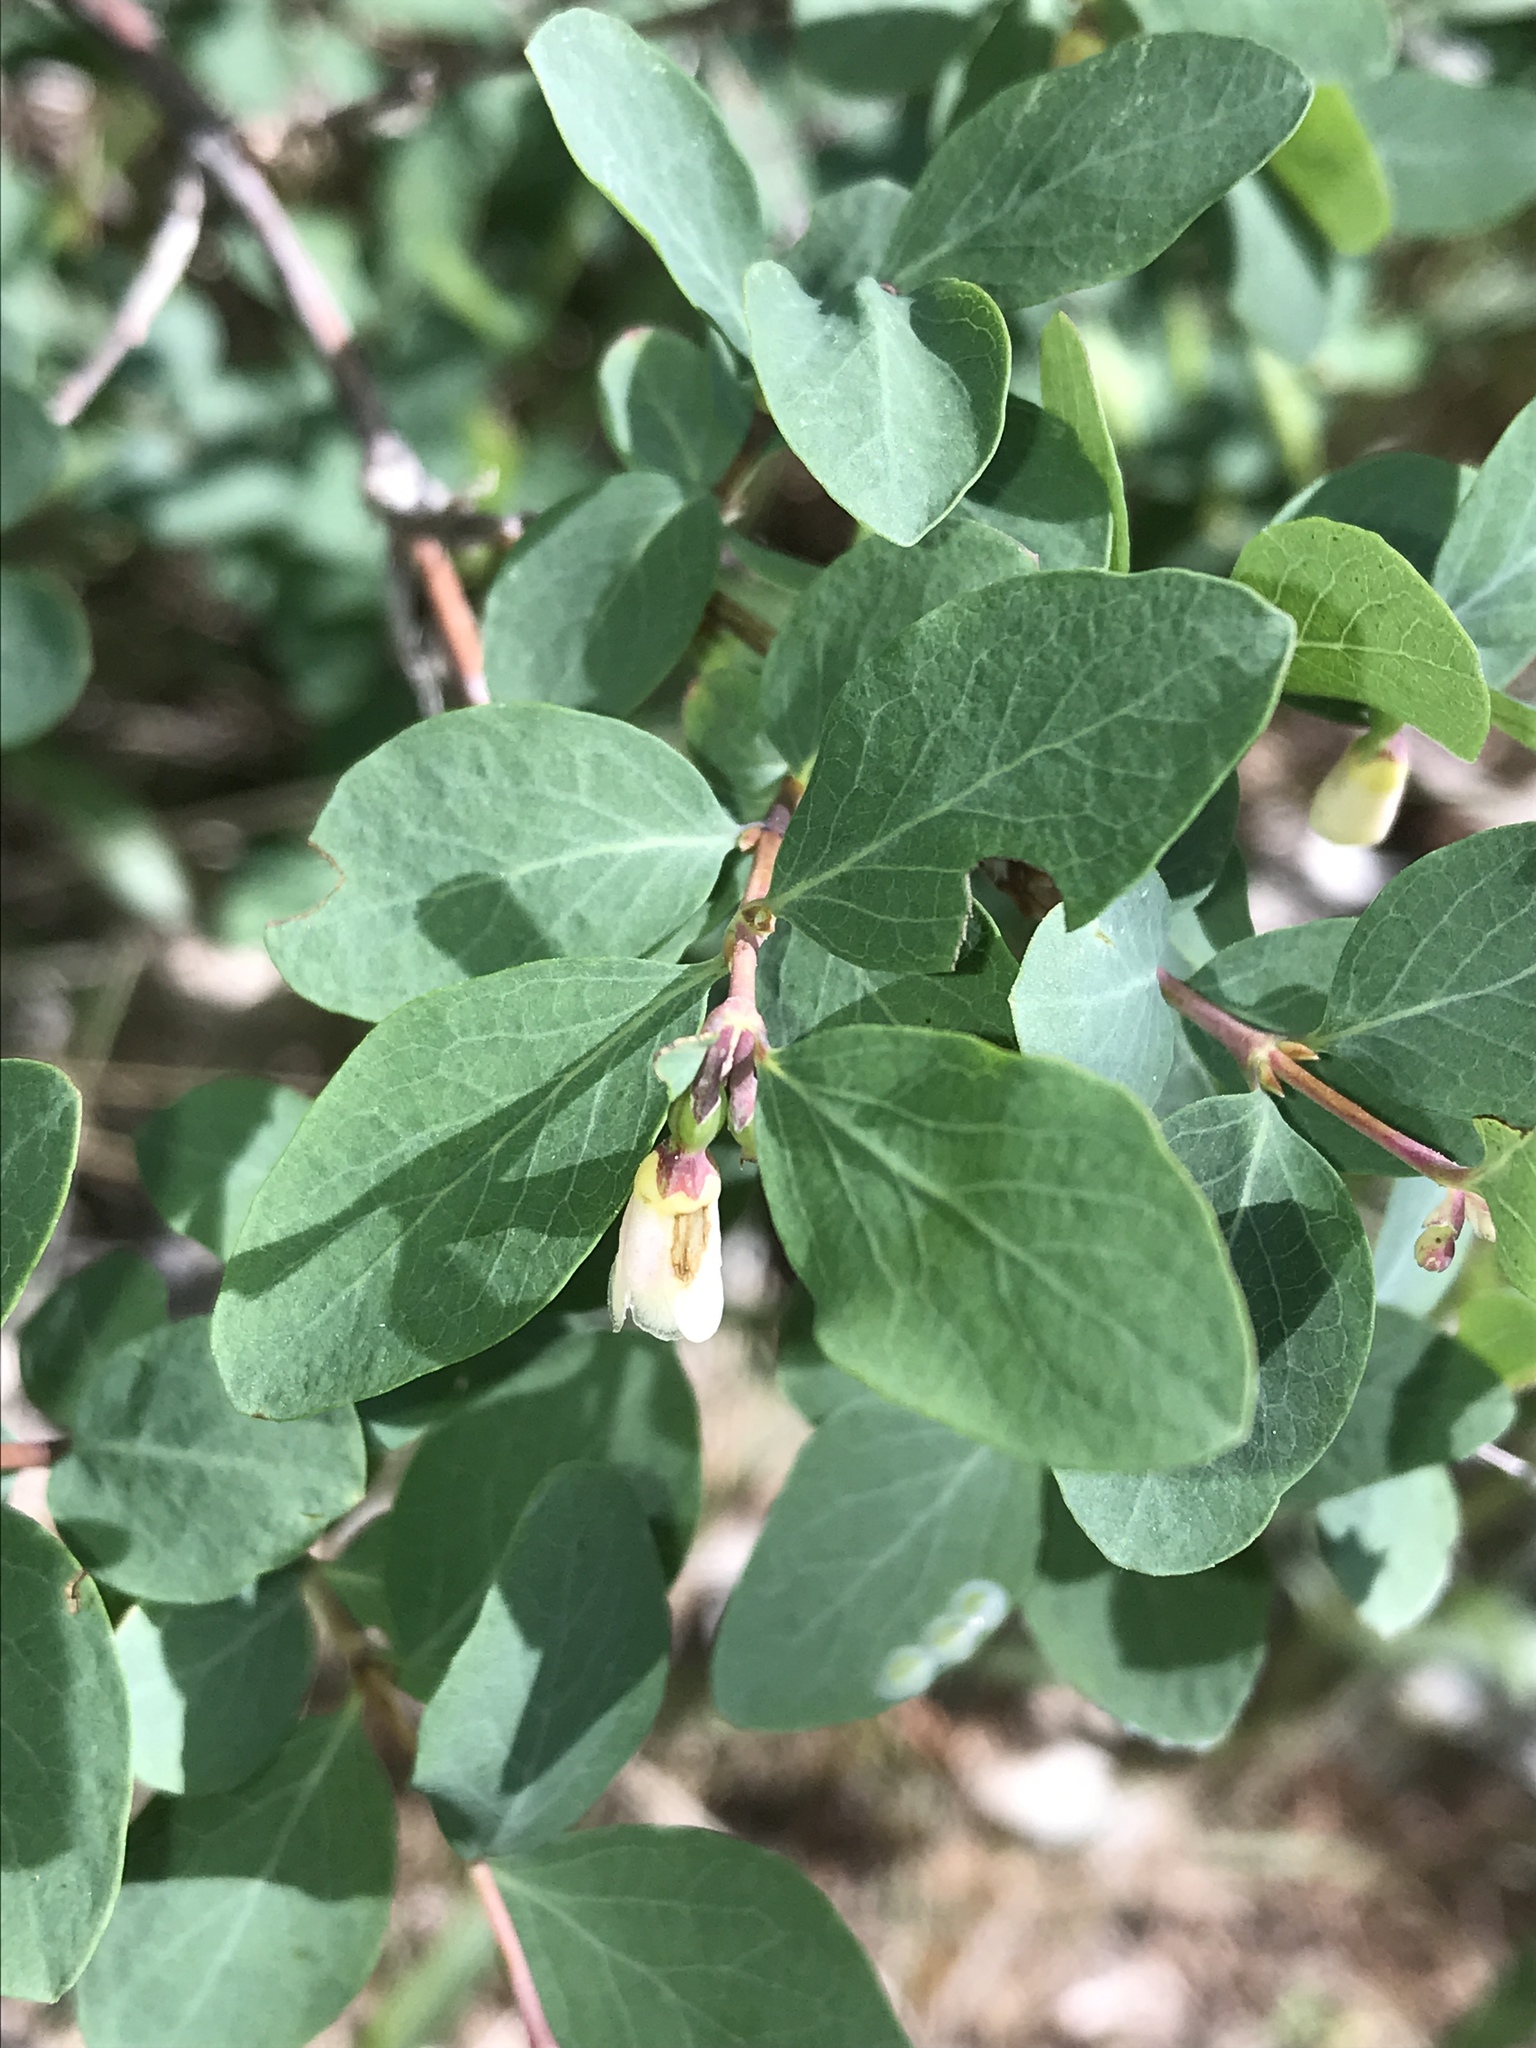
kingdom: Plantae
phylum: Tracheophyta
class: Magnoliopsida
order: Dipsacales
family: Caprifoliaceae
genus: Symphoricarpos
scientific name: Symphoricarpos rotundifolius
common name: Round-leaved snowberry
